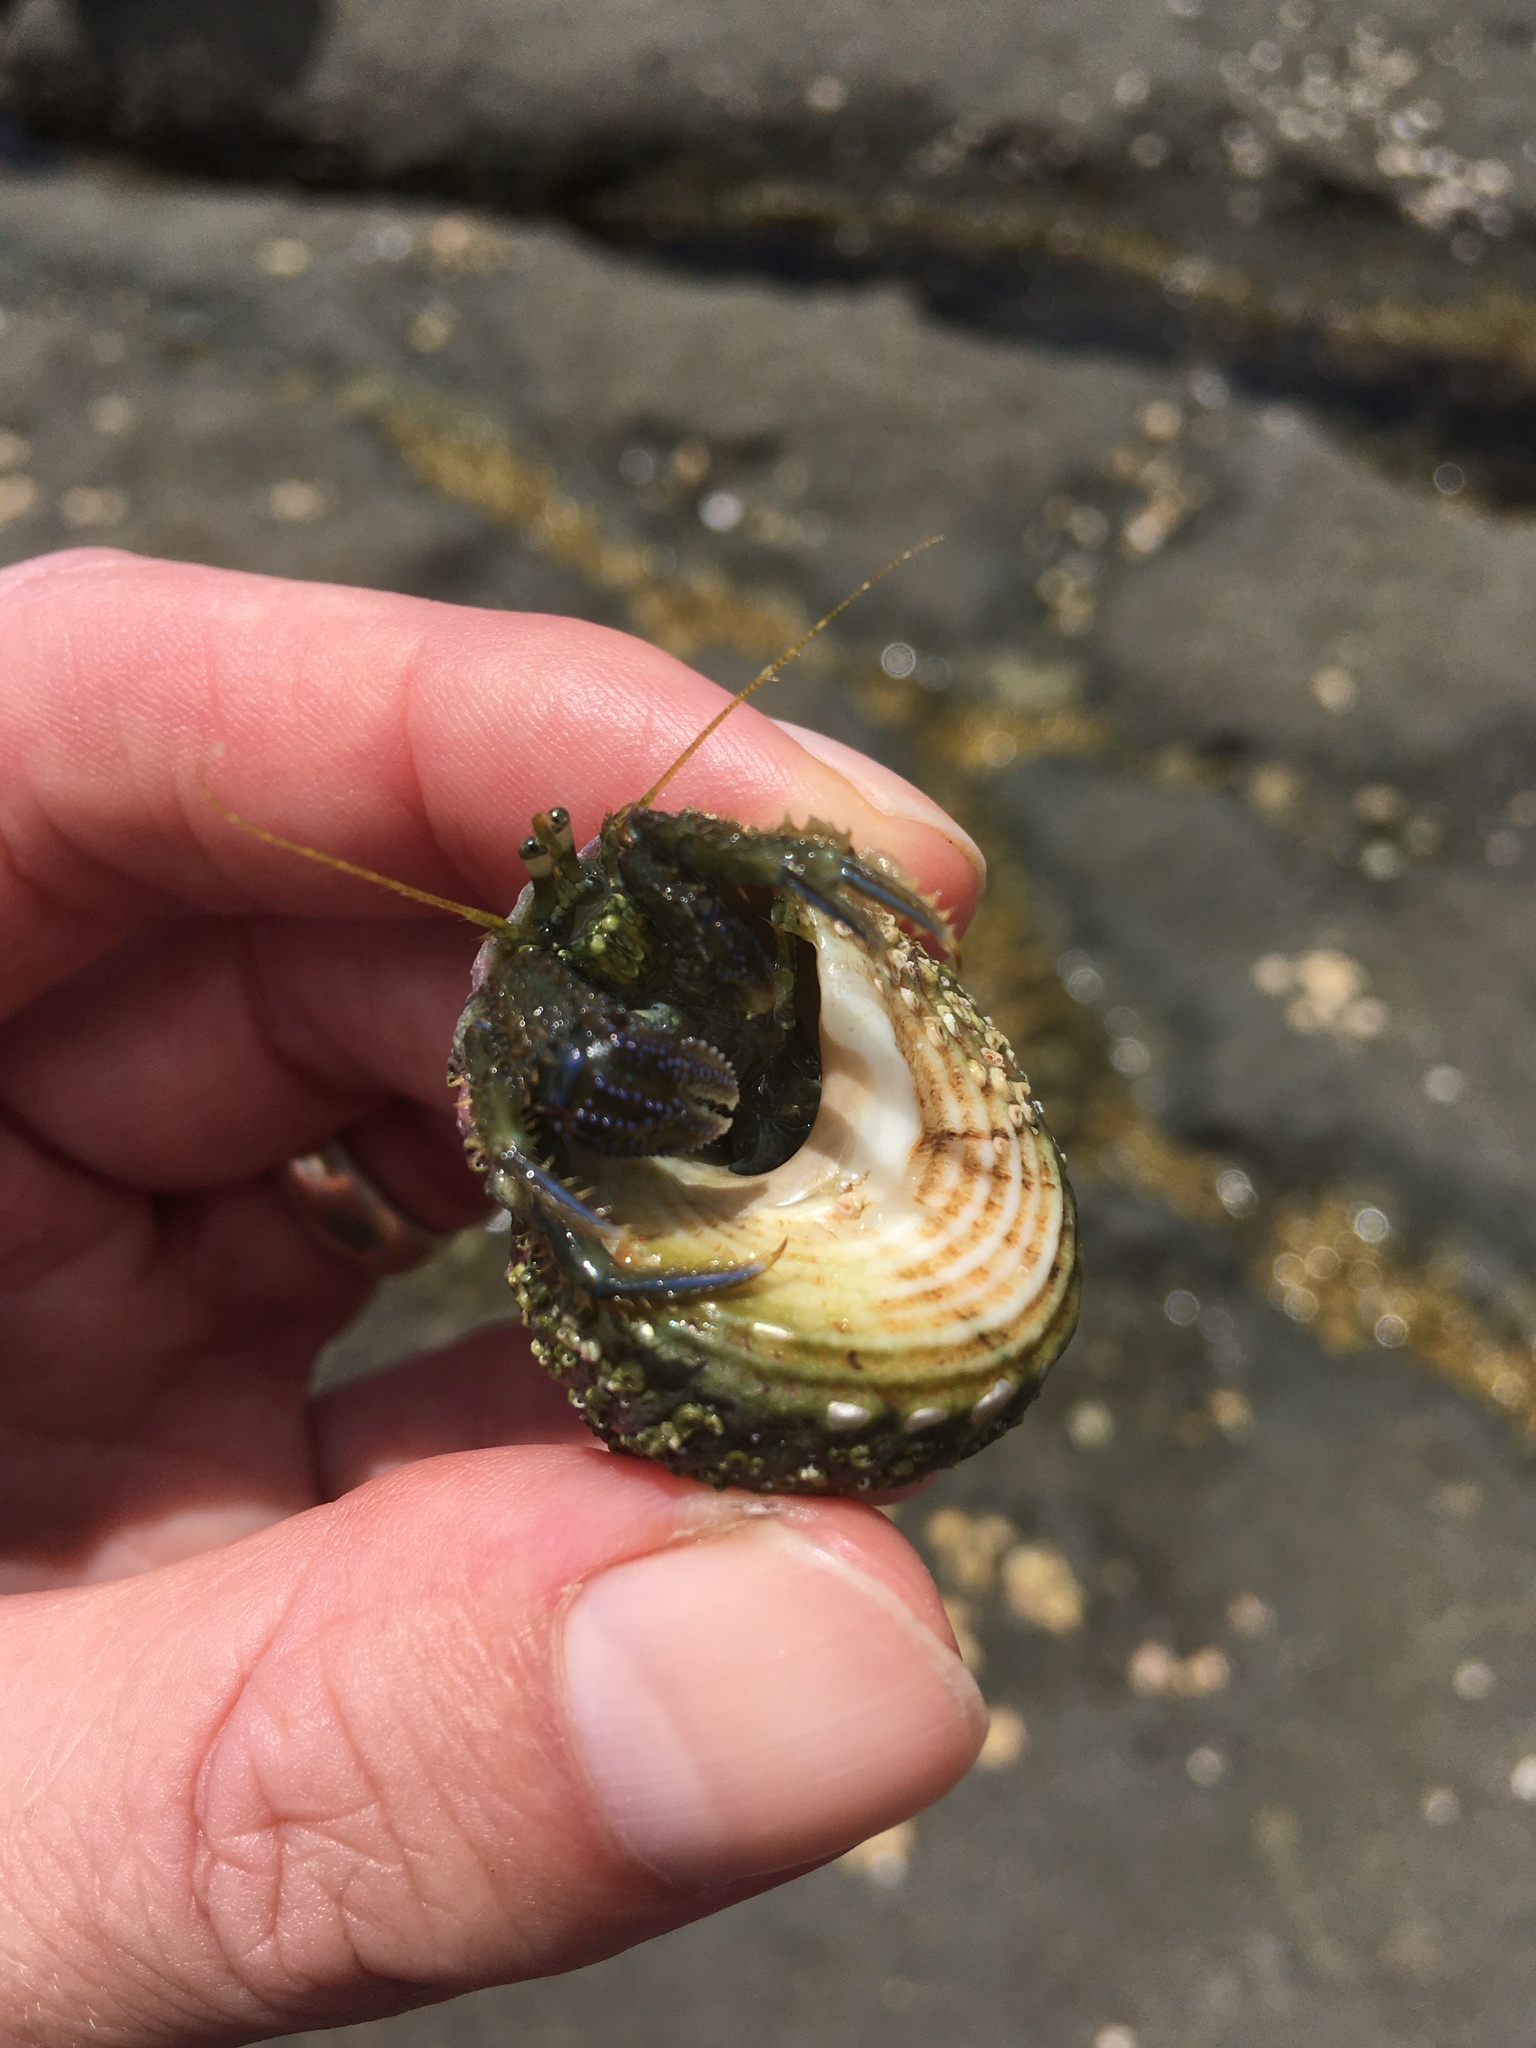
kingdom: Animalia
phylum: Arthropoda
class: Malacostraca
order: Decapoda
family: Paguridae
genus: Pagurus
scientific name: Pagurus novizealandiae
